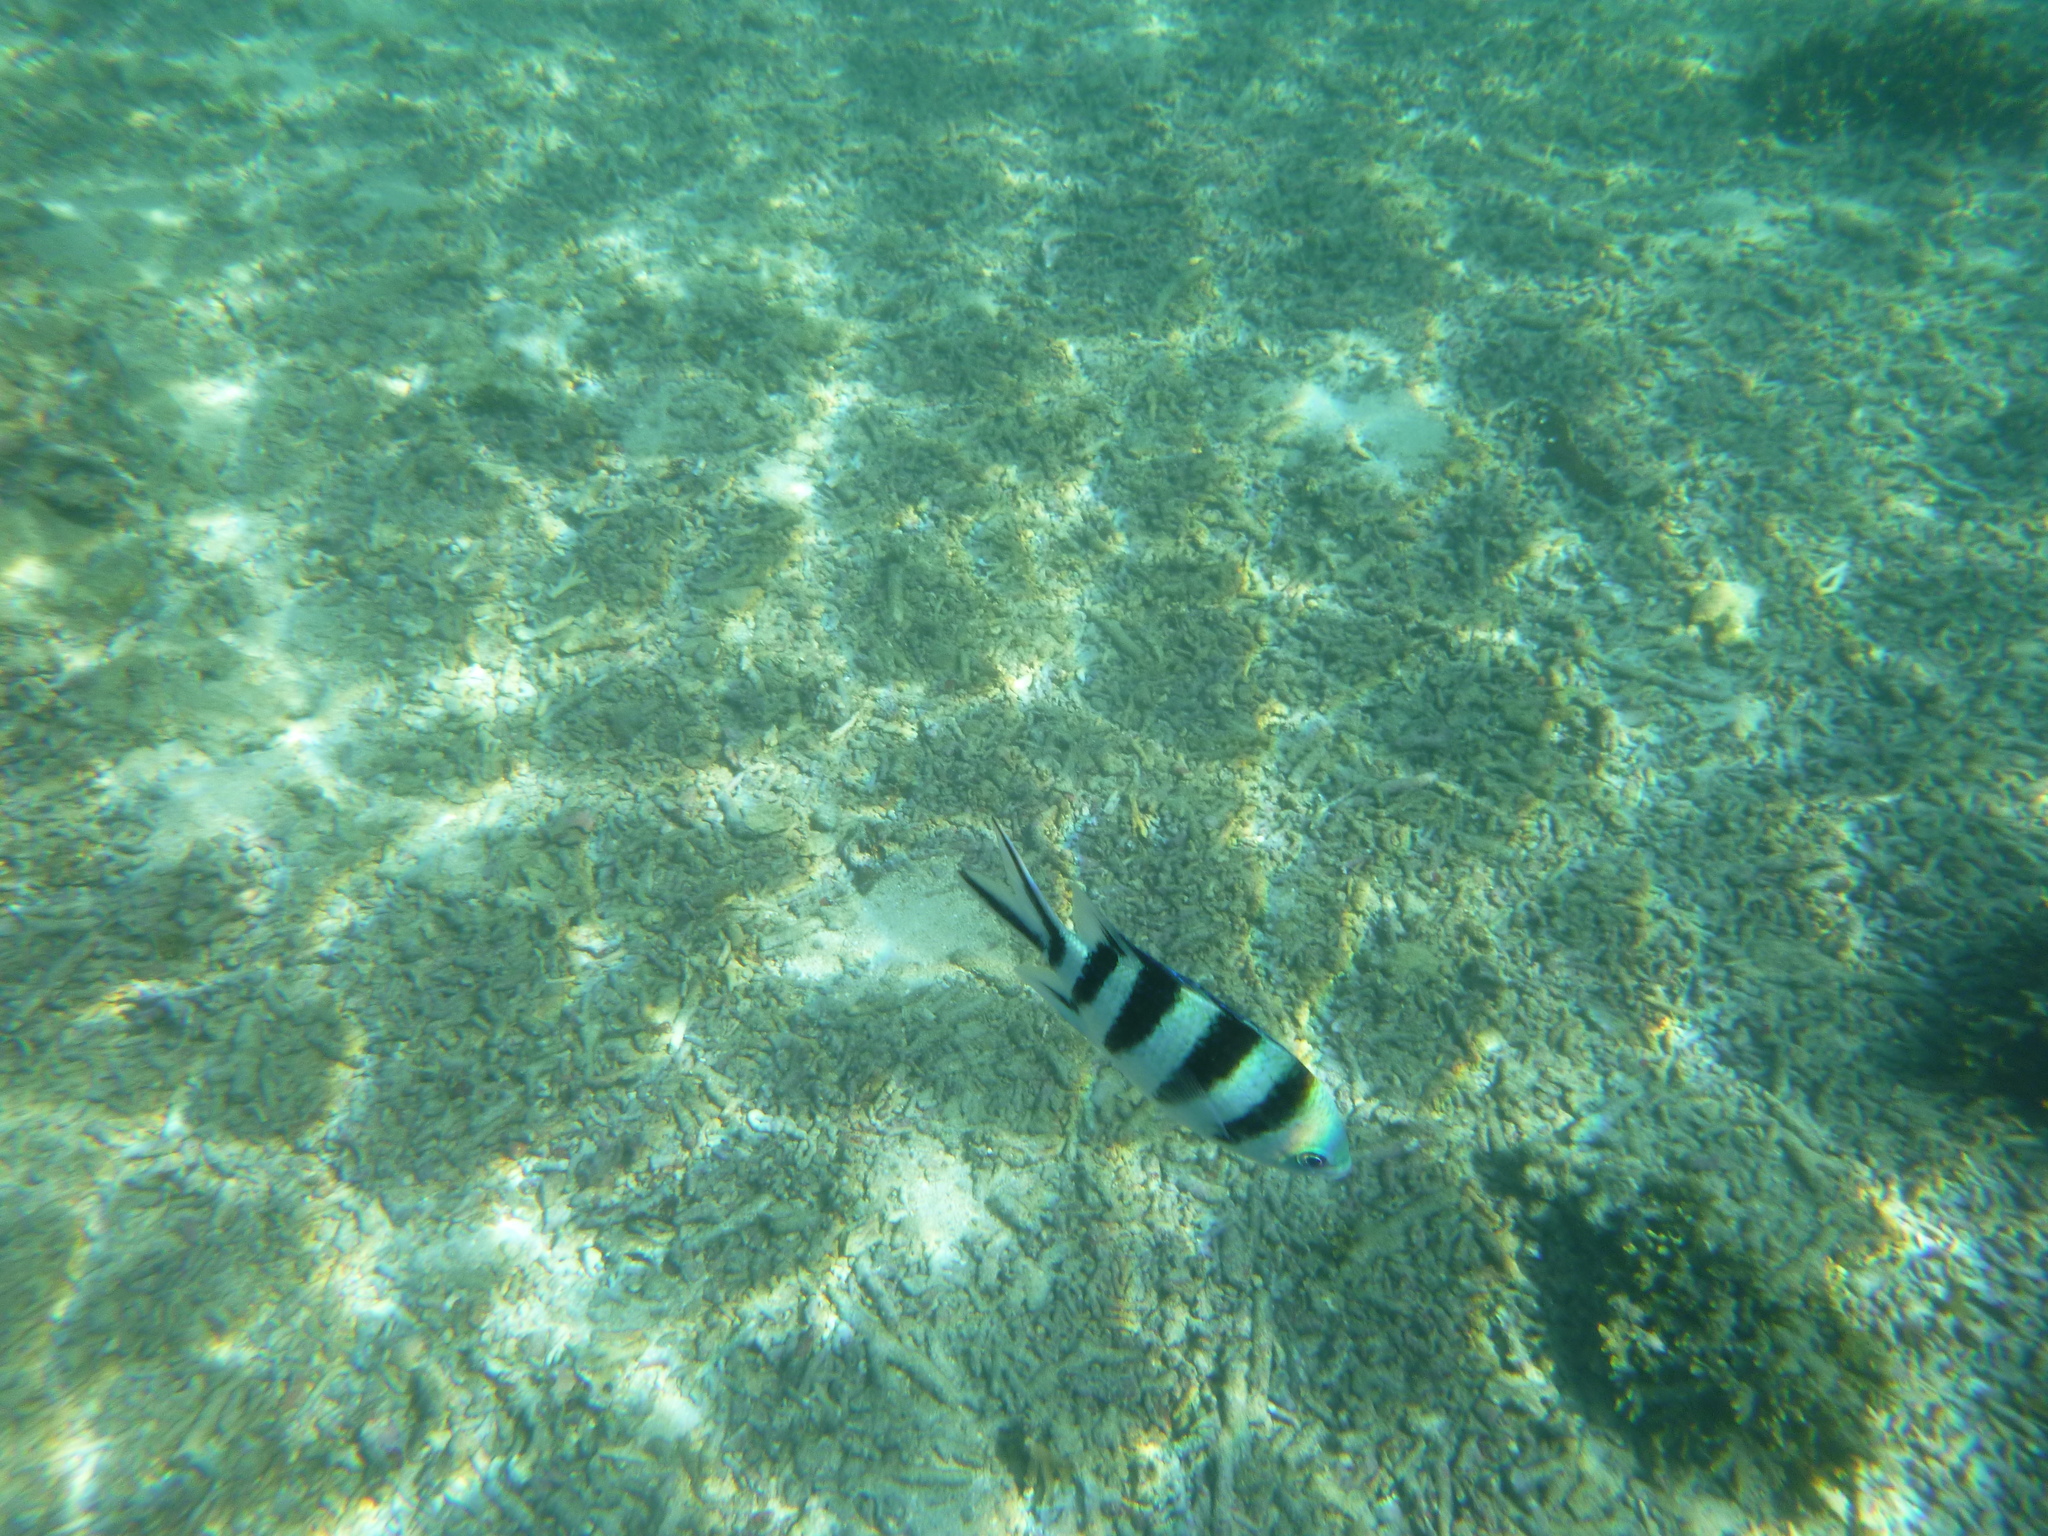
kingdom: Animalia
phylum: Chordata
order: Perciformes
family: Pomacentridae
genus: Abudefduf
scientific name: Abudefduf sexfasciatus
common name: Scissortail sergeant
